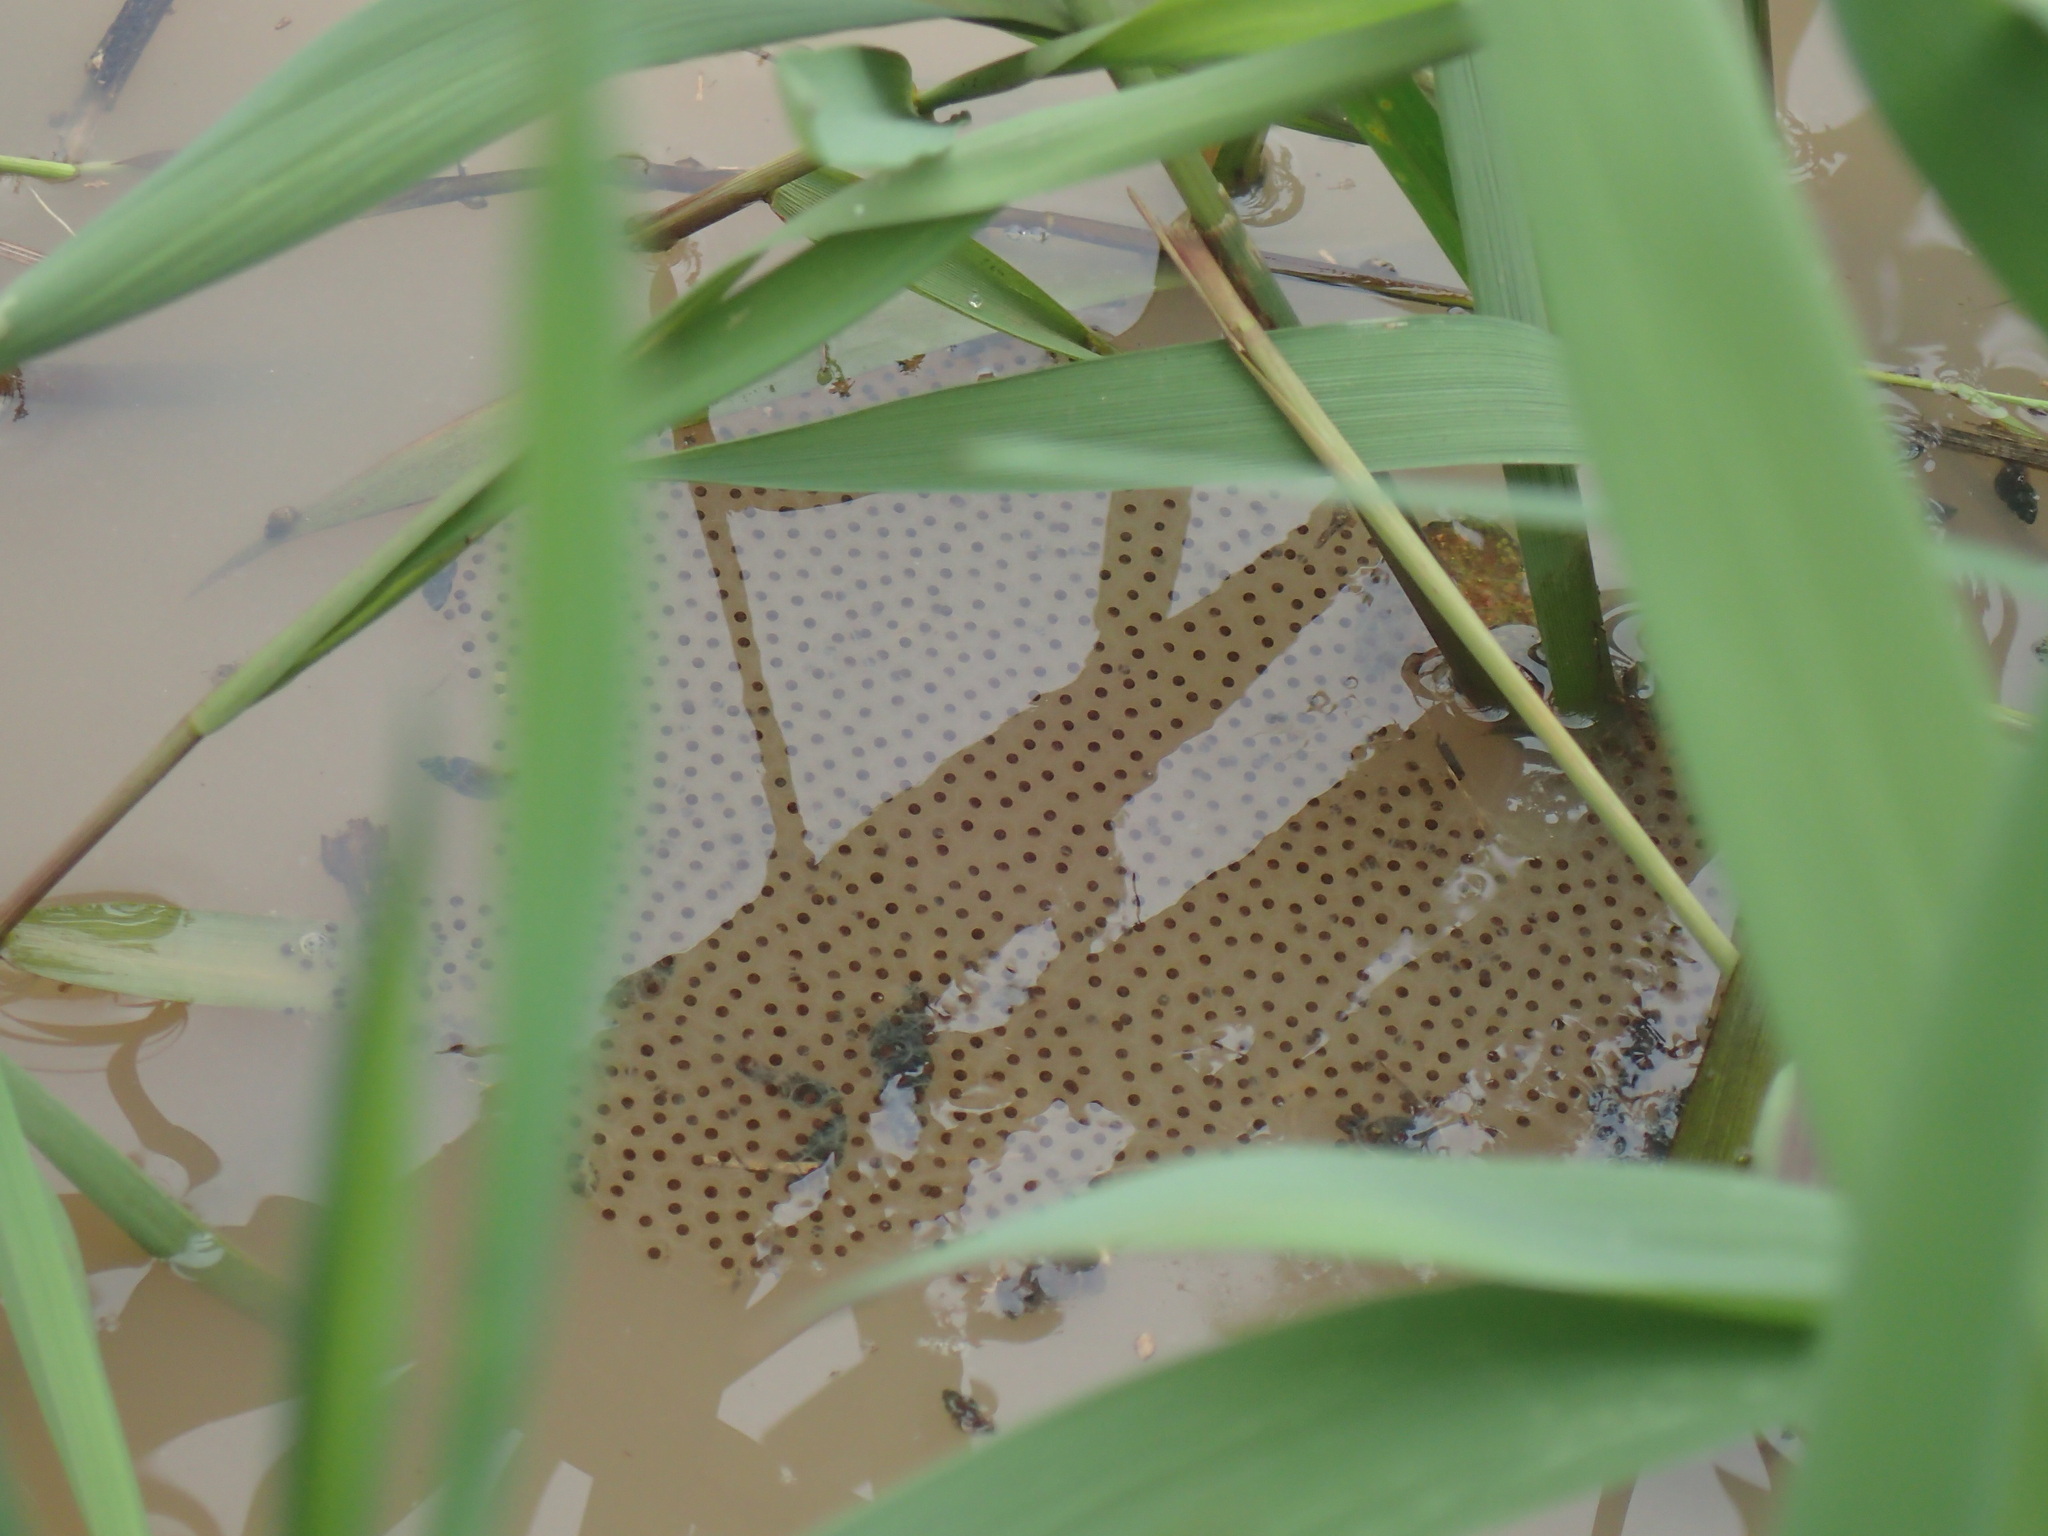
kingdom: Animalia
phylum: Chordata
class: Amphibia
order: Anura
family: Bufonidae
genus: Schismaderma
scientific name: Schismaderma carens
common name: African split-skin toad
